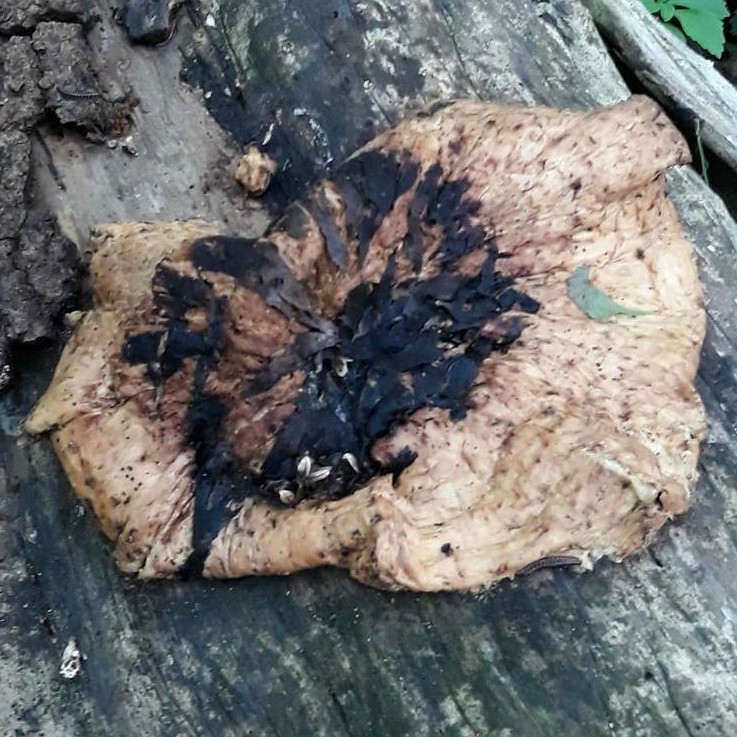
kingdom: Fungi
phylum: Basidiomycota
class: Agaricomycetes
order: Polyporales
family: Polyporaceae
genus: Cerioporus
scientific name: Cerioporus squamosus
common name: Dryad's saddle
